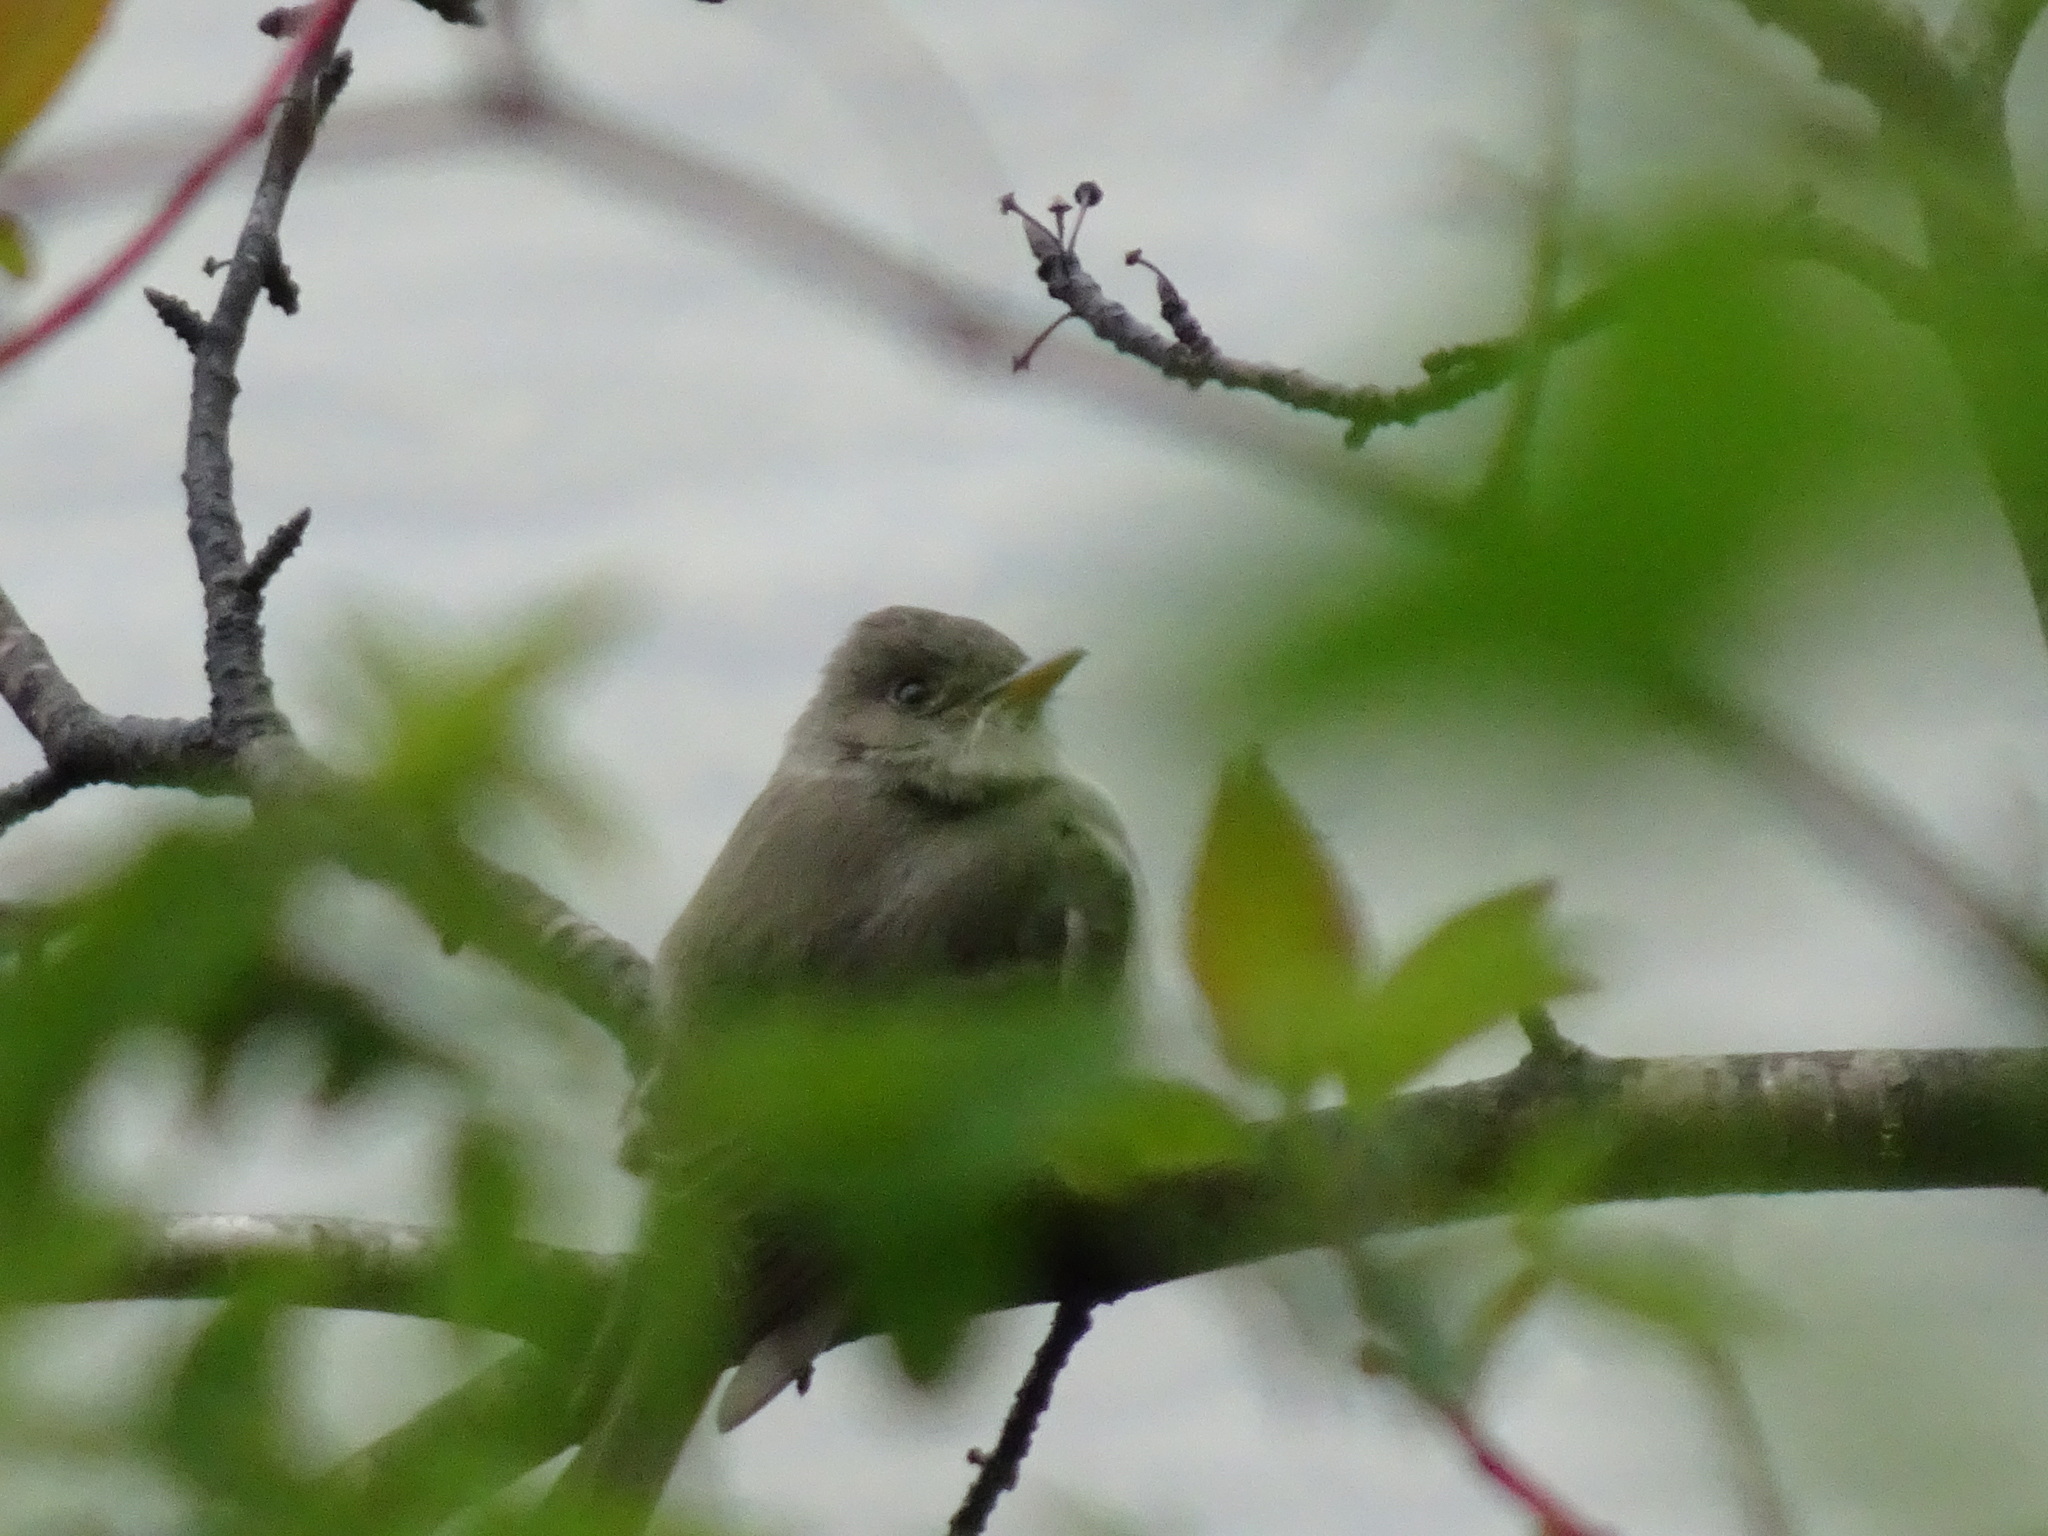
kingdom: Animalia
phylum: Chordata
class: Aves
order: Passeriformes
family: Tyrannidae
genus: Contopus
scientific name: Contopus virens
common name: Eastern wood-pewee
